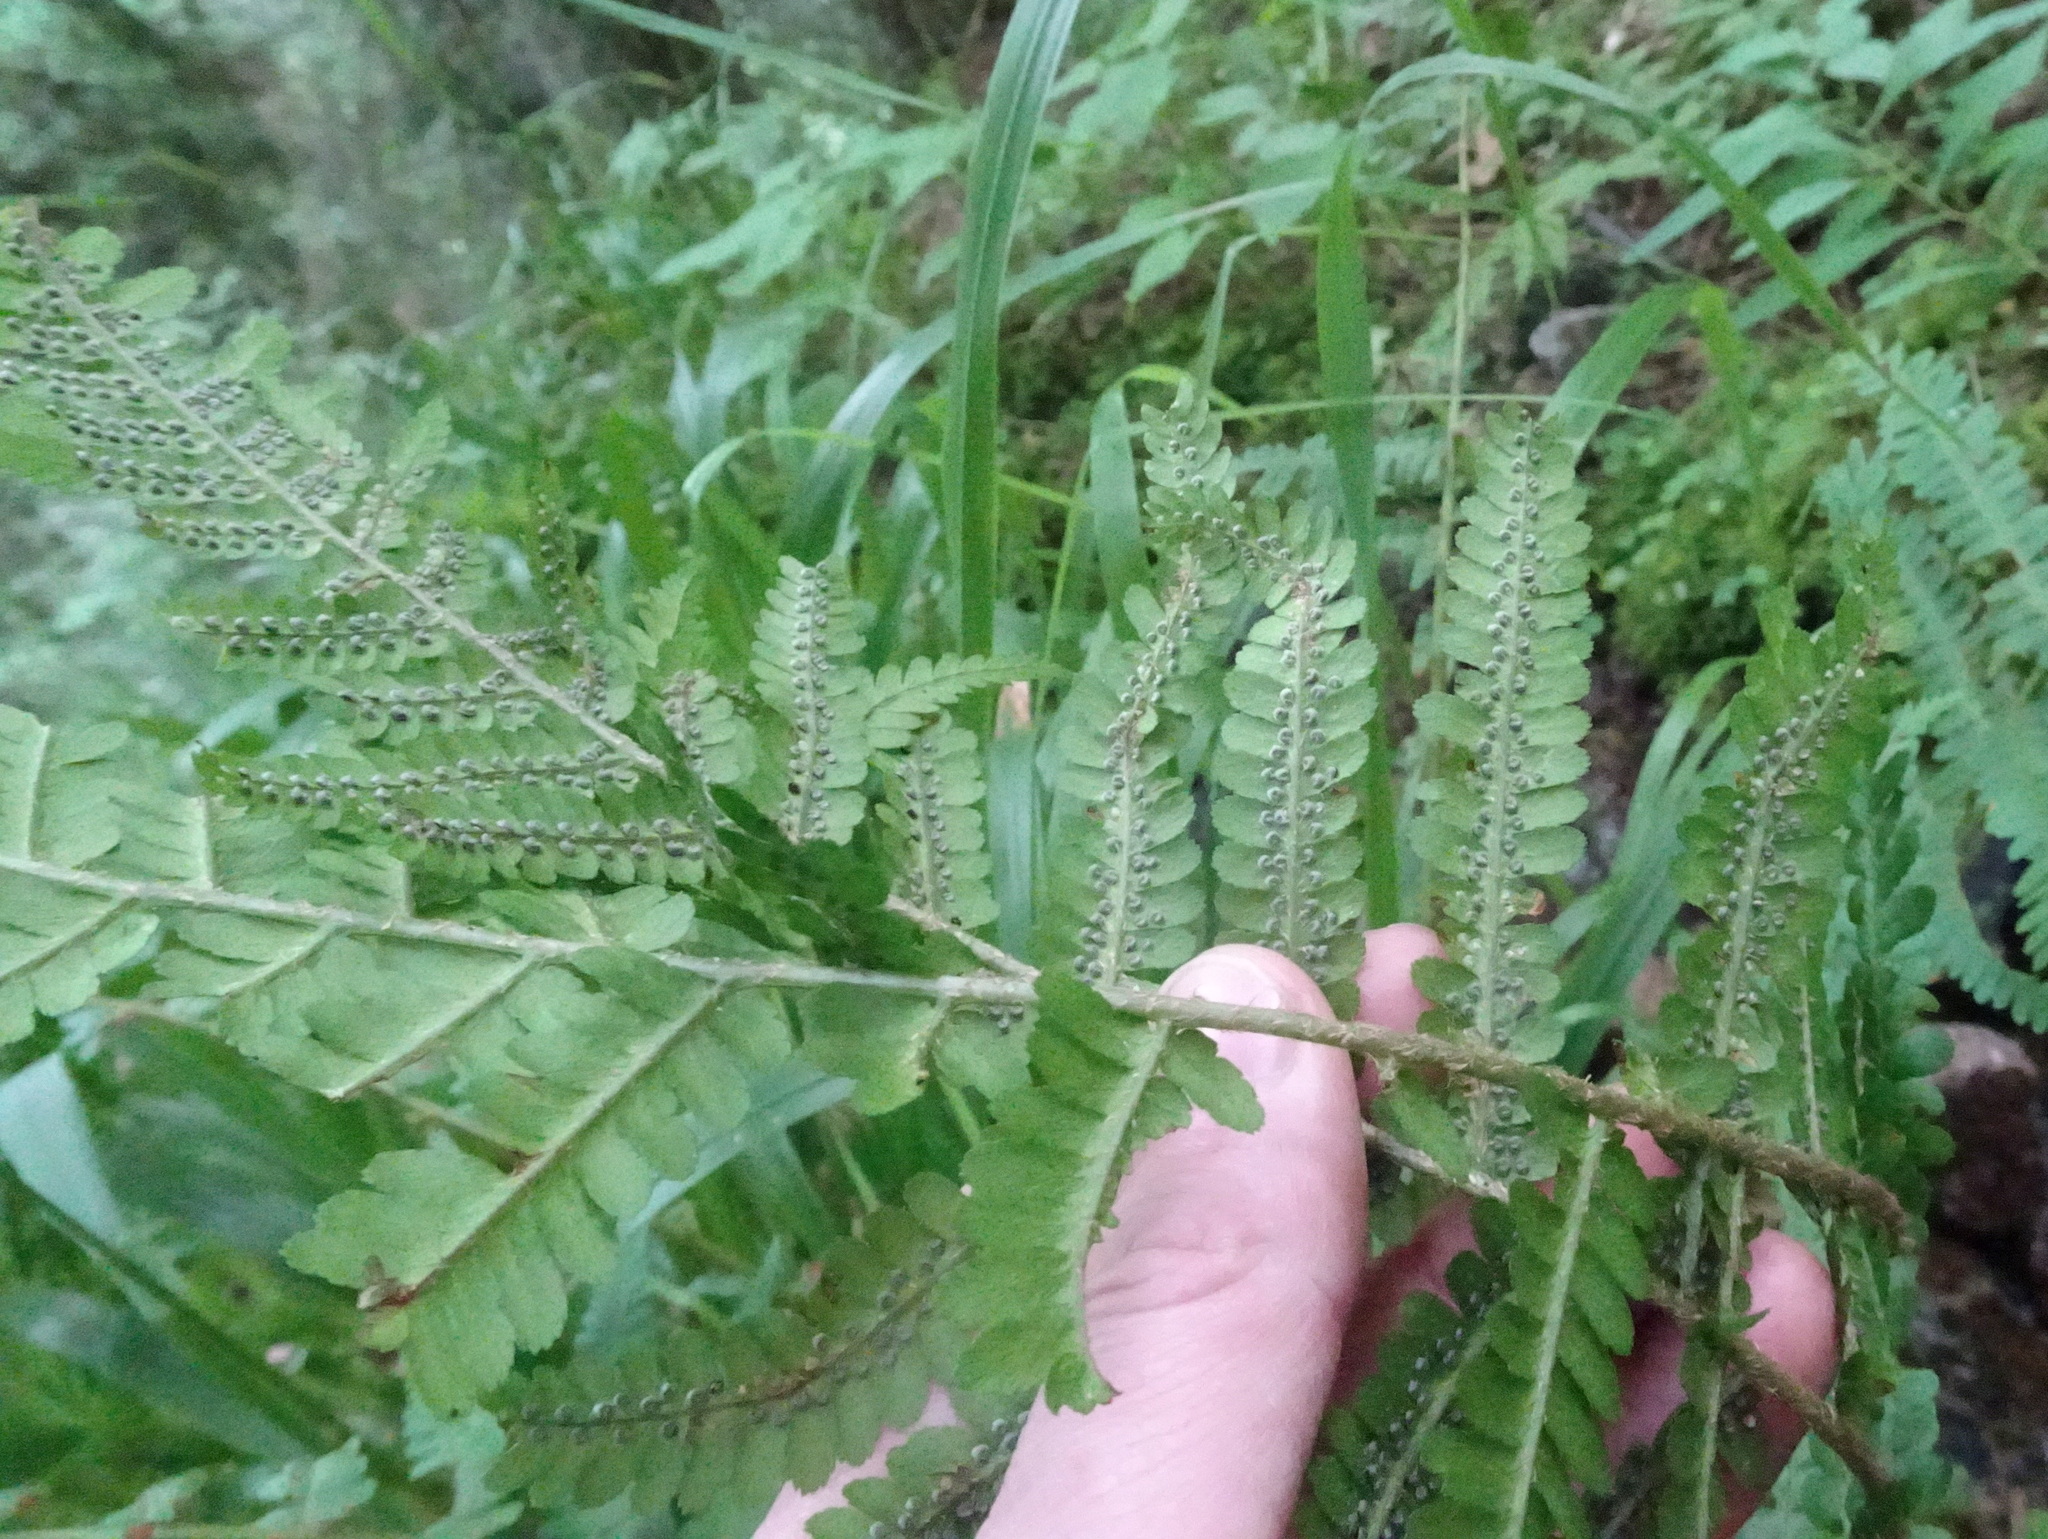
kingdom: Plantae
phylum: Tracheophyta
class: Polypodiopsida
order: Polypodiales
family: Dryopteridaceae
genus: Dryopteris
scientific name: Dryopteris filix-mas
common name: Male fern
